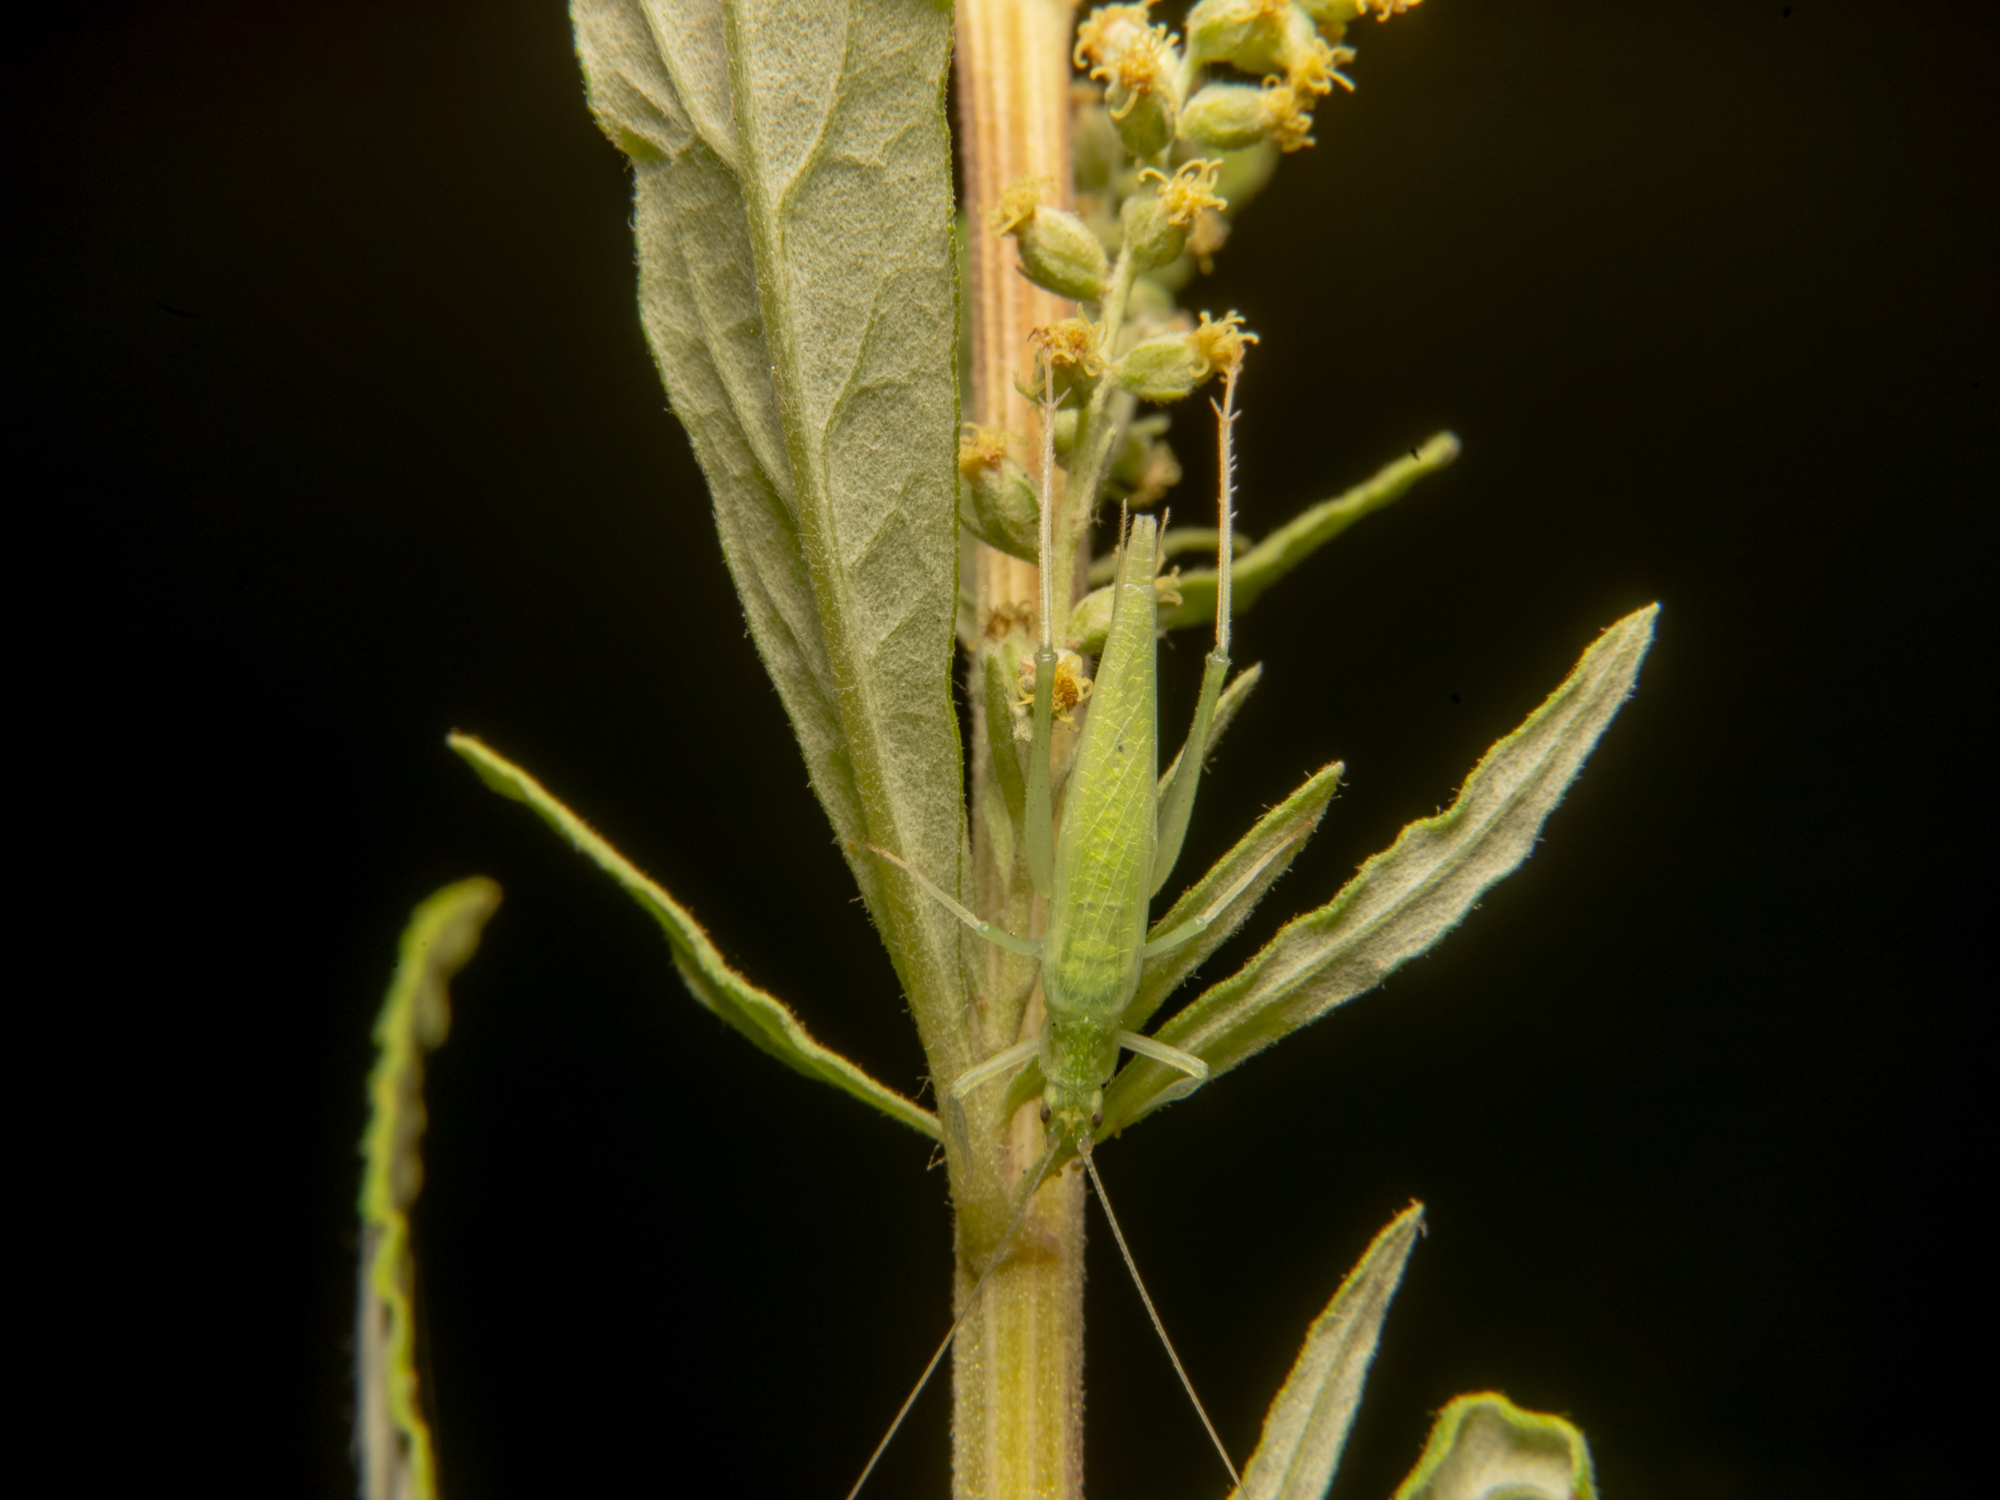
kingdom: Animalia
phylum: Arthropoda
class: Insecta
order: Orthoptera
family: Gryllidae
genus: Oecanthus
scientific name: Oecanthus rileyi
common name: Riley's tree cricket
